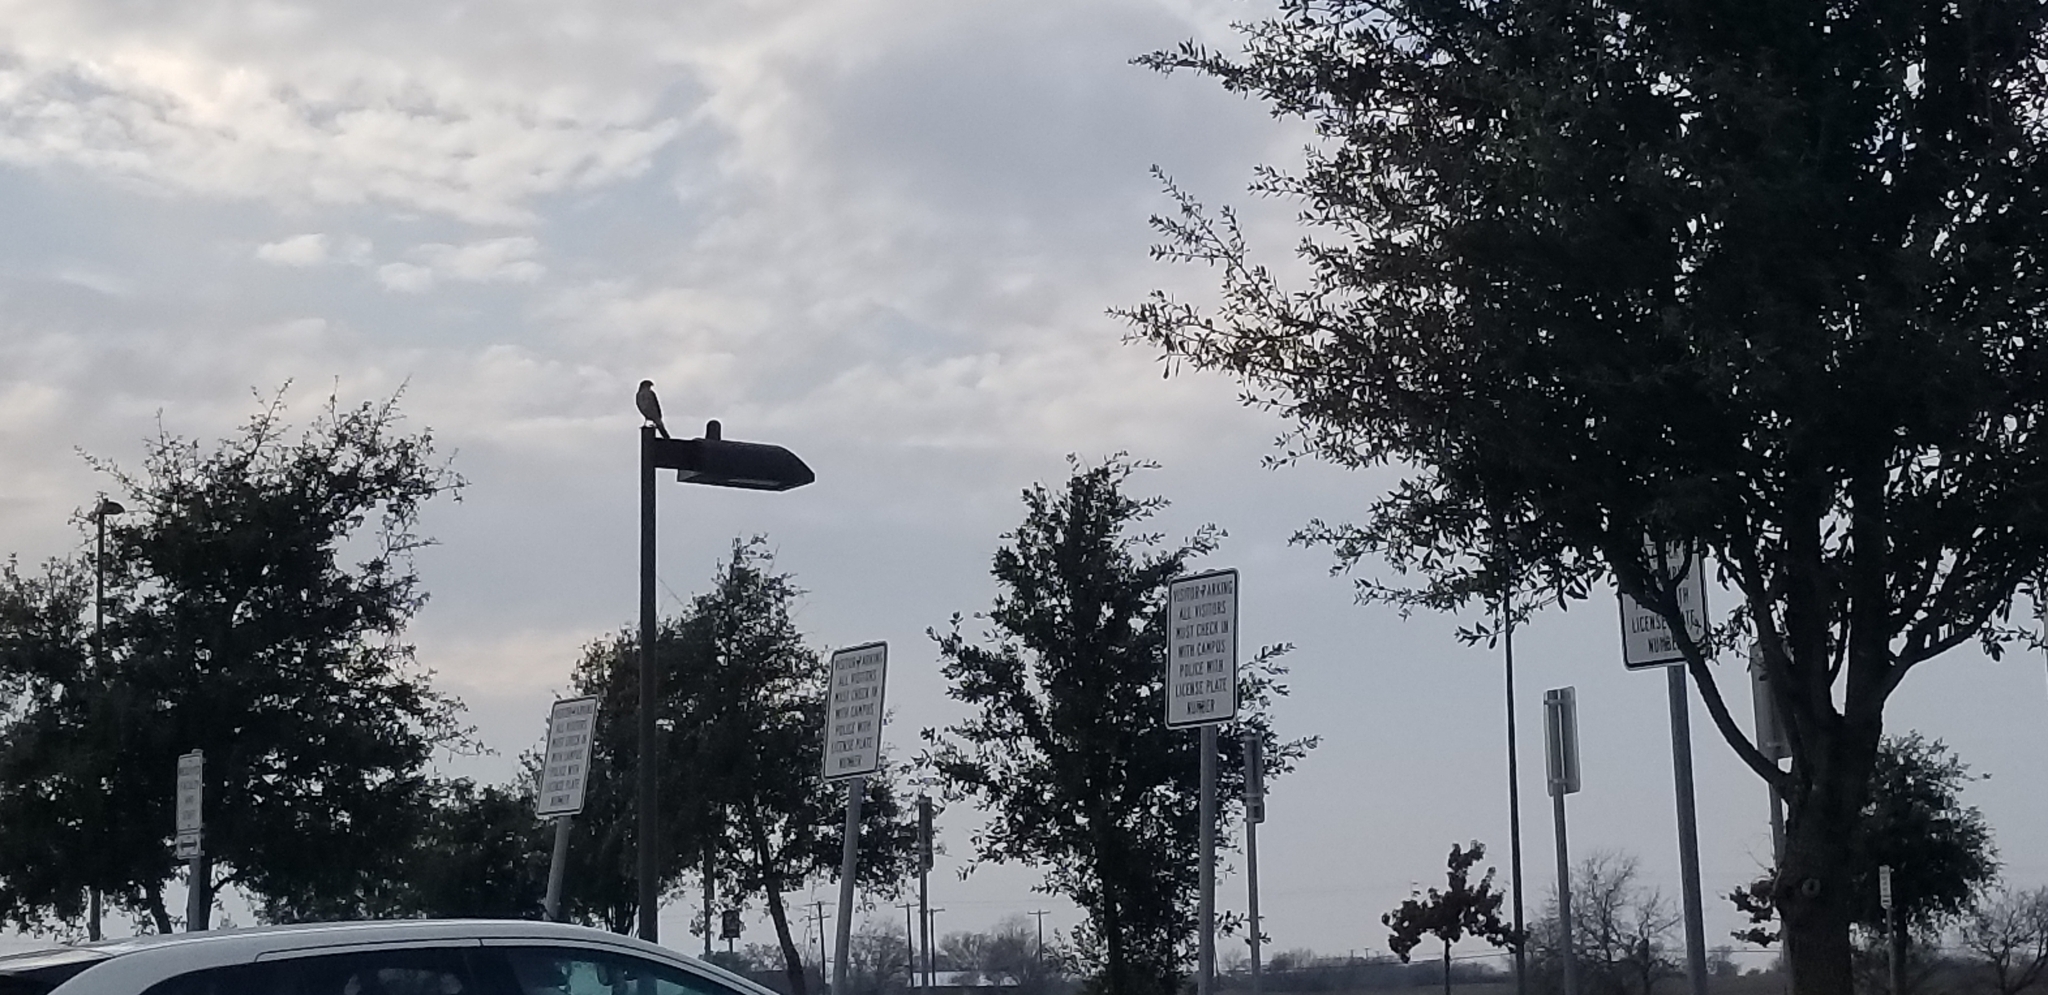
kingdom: Animalia
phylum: Chordata
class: Aves
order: Accipitriformes
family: Accipitridae
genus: Accipiter
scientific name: Accipiter cooperii
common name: Cooper's hawk
